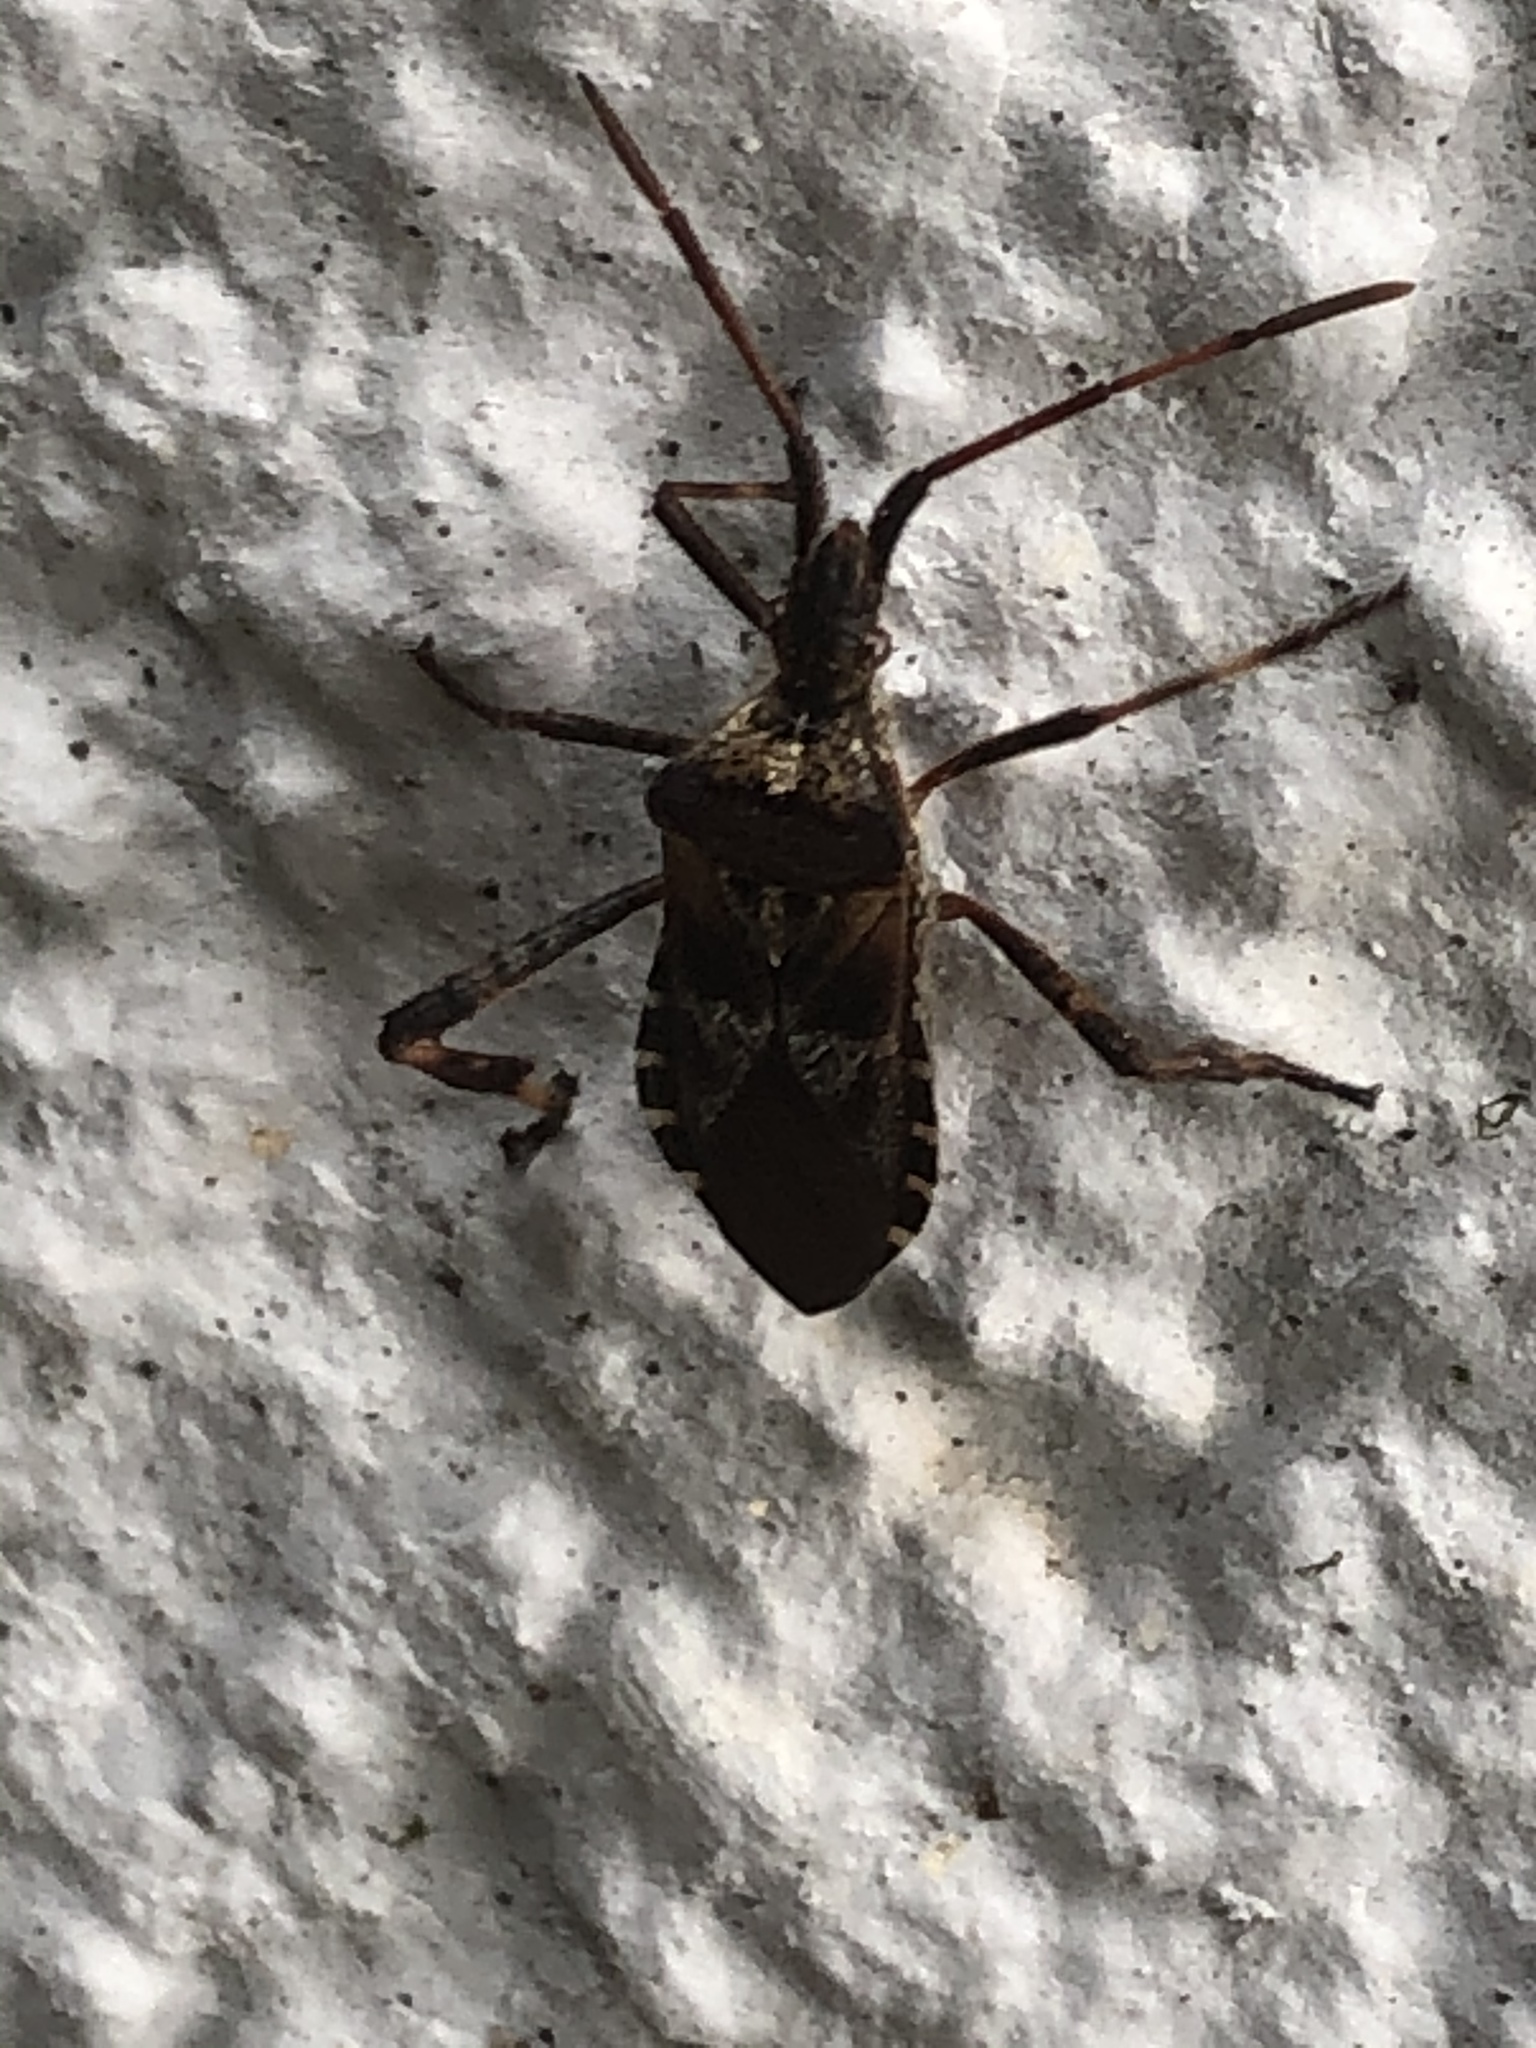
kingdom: Animalia
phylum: Arthropoda
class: Insecta
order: Hemiptera
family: Coreidae
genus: Leptoglossus
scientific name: Leptoglossus occidentalis
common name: Western conifer-seed bug
